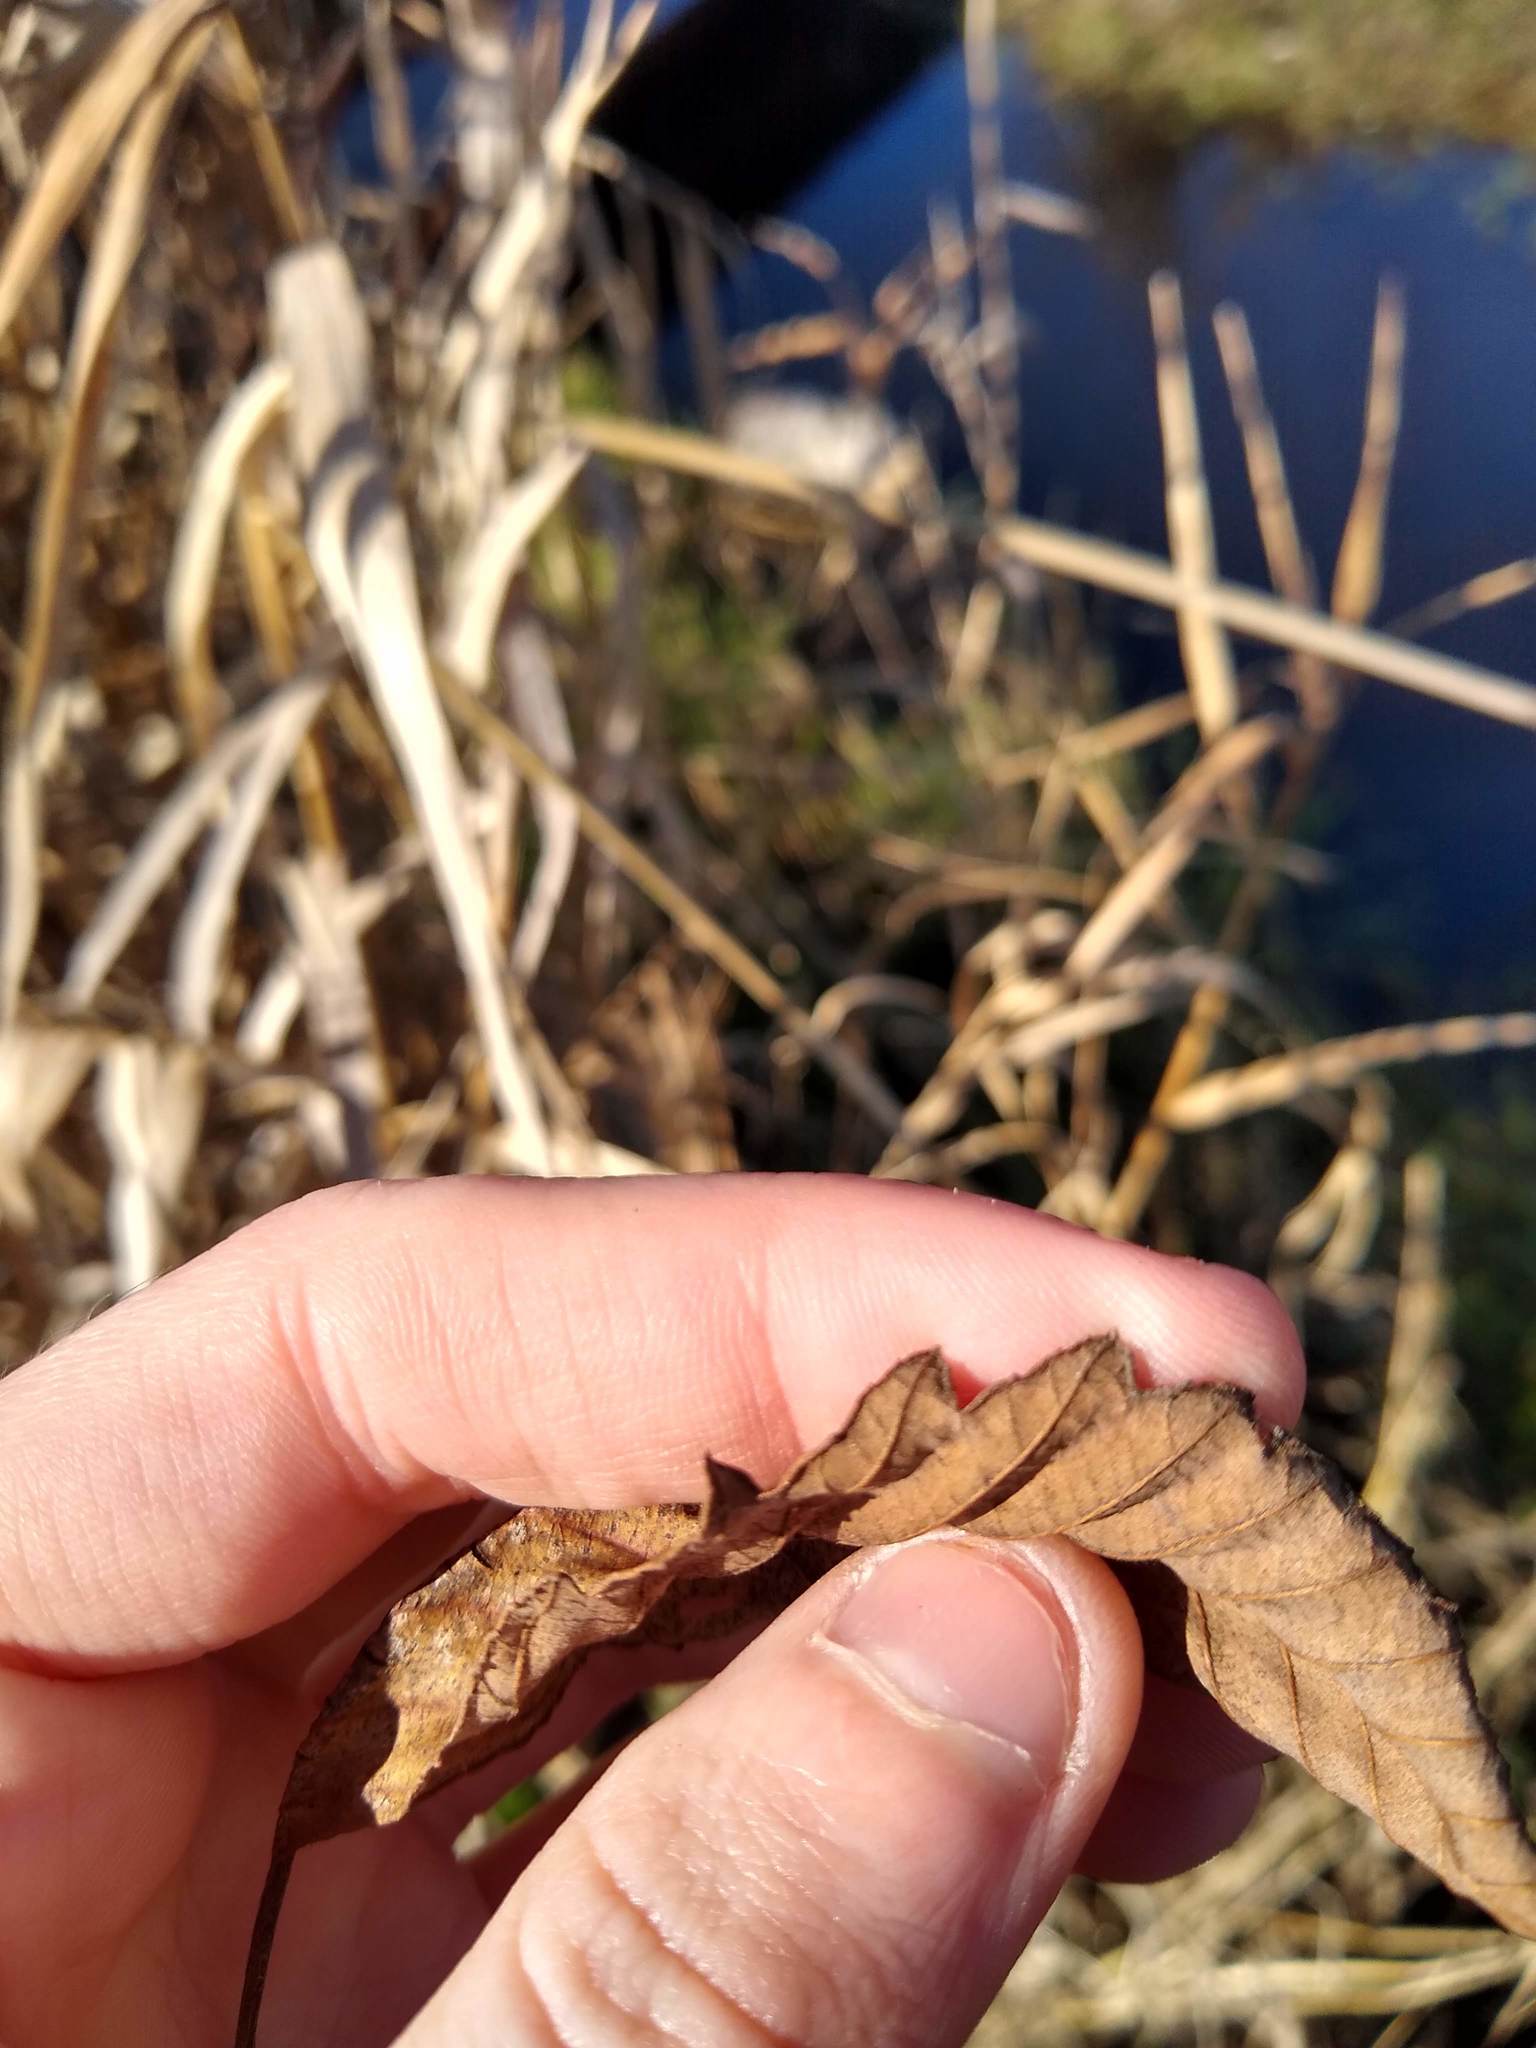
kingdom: Plantae
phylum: Tracheophyta
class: Magnoliopsida
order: Fagales
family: Betulaceae
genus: Alnus
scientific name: Alnus rubra
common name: Red alder
